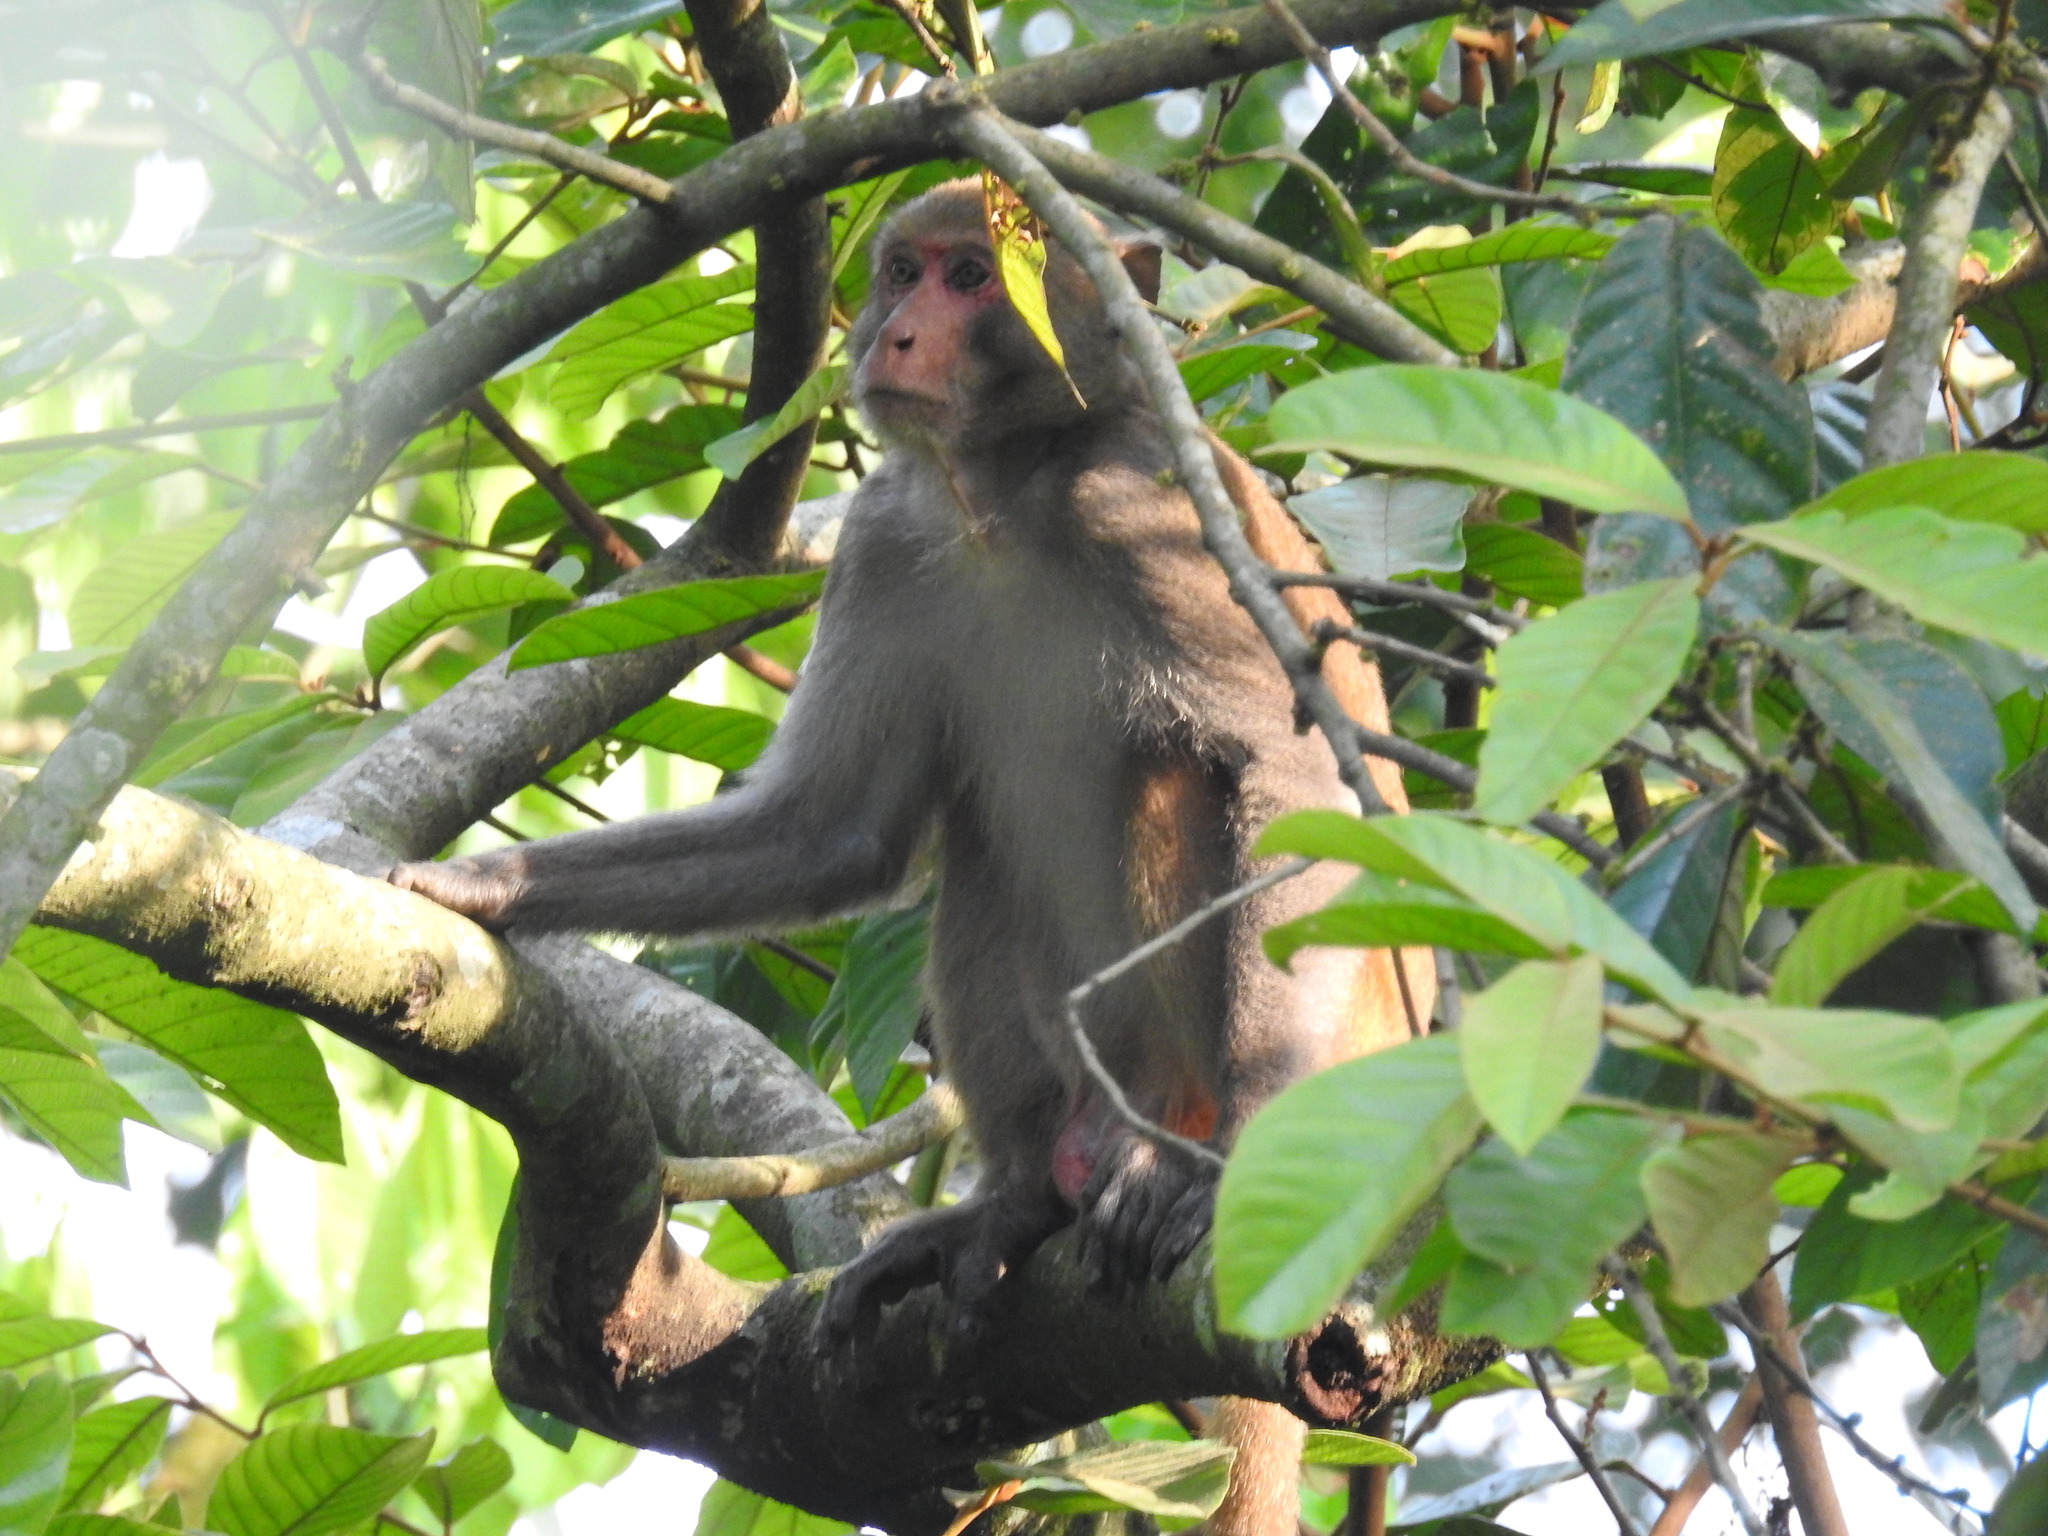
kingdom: Animalia
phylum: Chordata
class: Mammalia
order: Primates
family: Cercopithecidae
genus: Macaca
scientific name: Macaca mulatta
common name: Rhesus monkey
